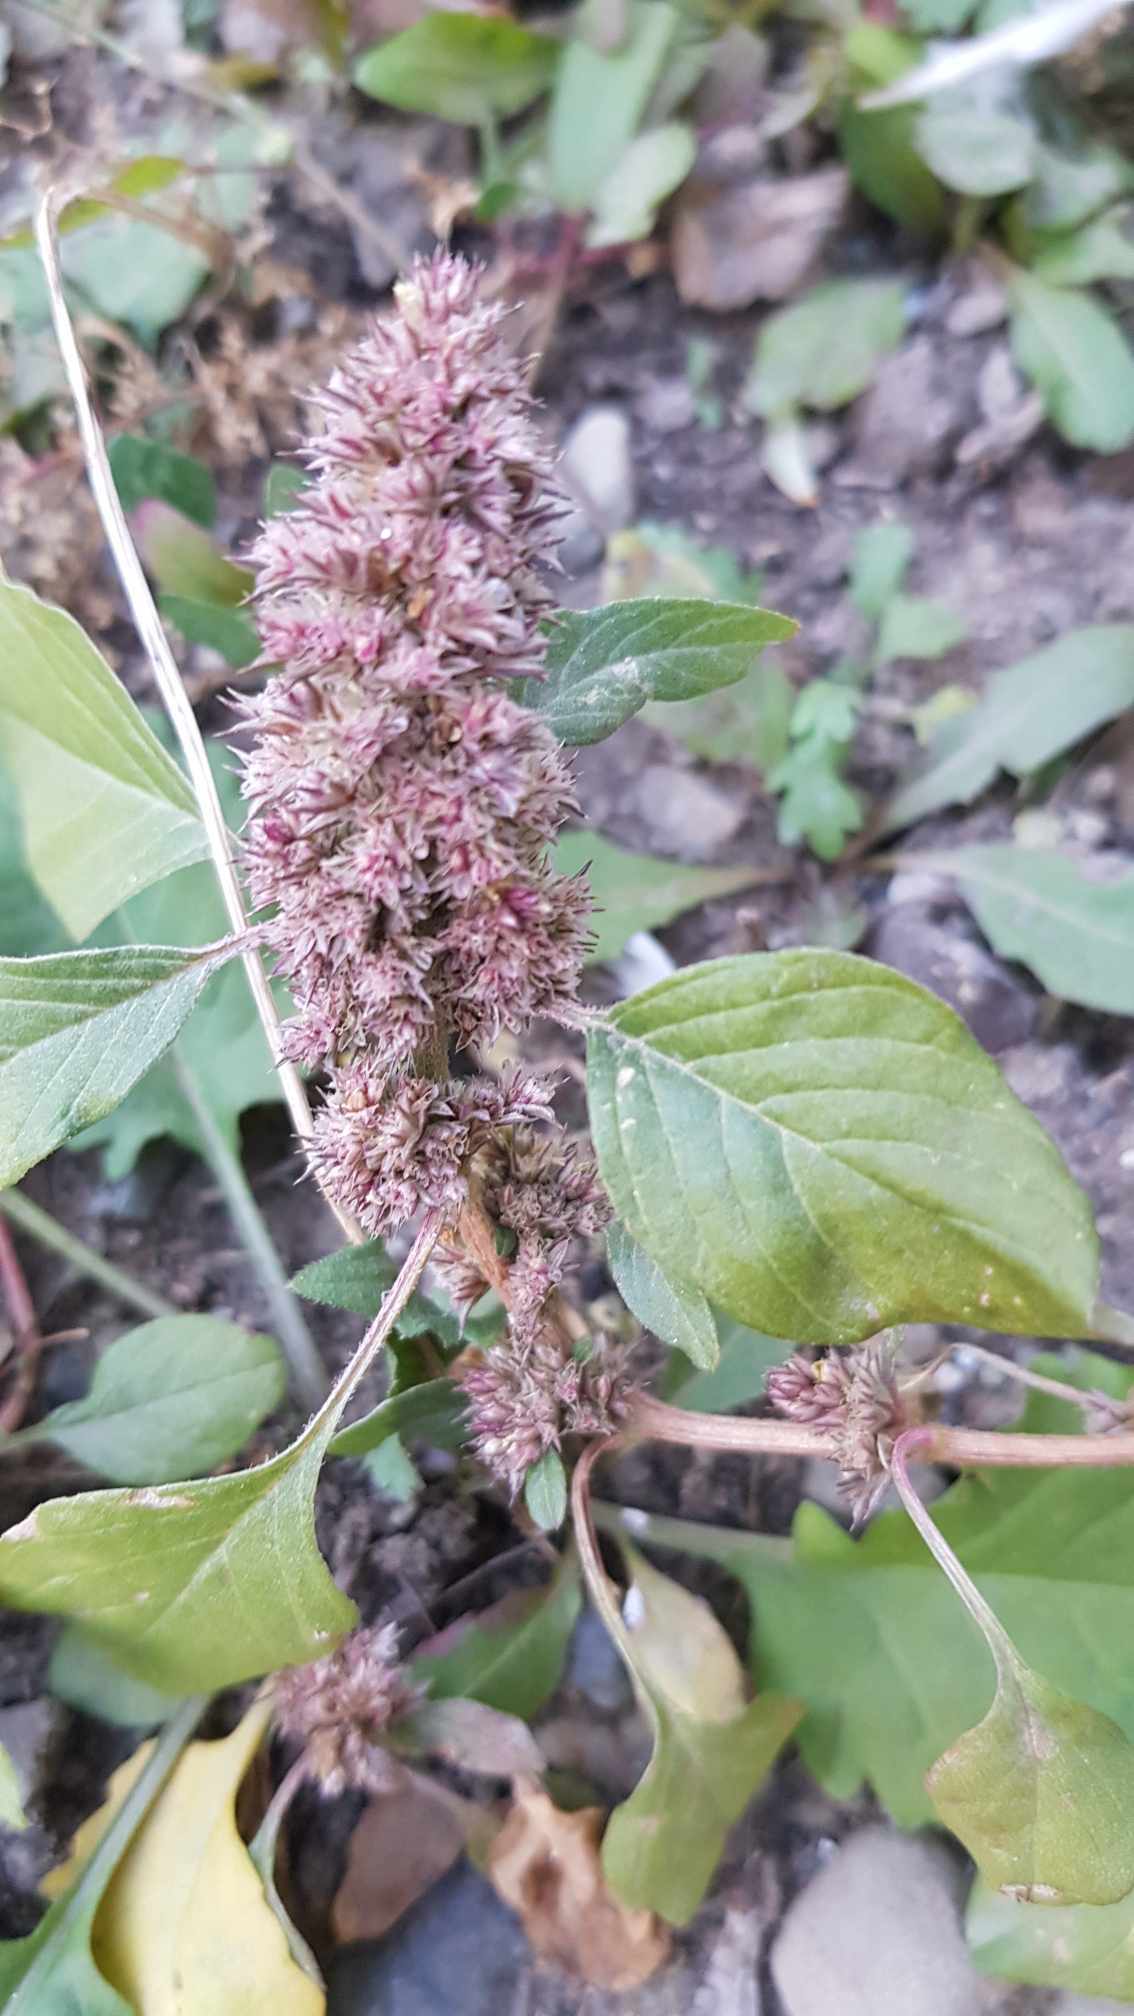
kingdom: Plantae
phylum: Tracheophyta
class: Magnoliopsida
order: Caryophyllales
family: Amaranthaceae
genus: Amaranthus
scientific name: Amaranthus retroflexus
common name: Redroot amaranth
